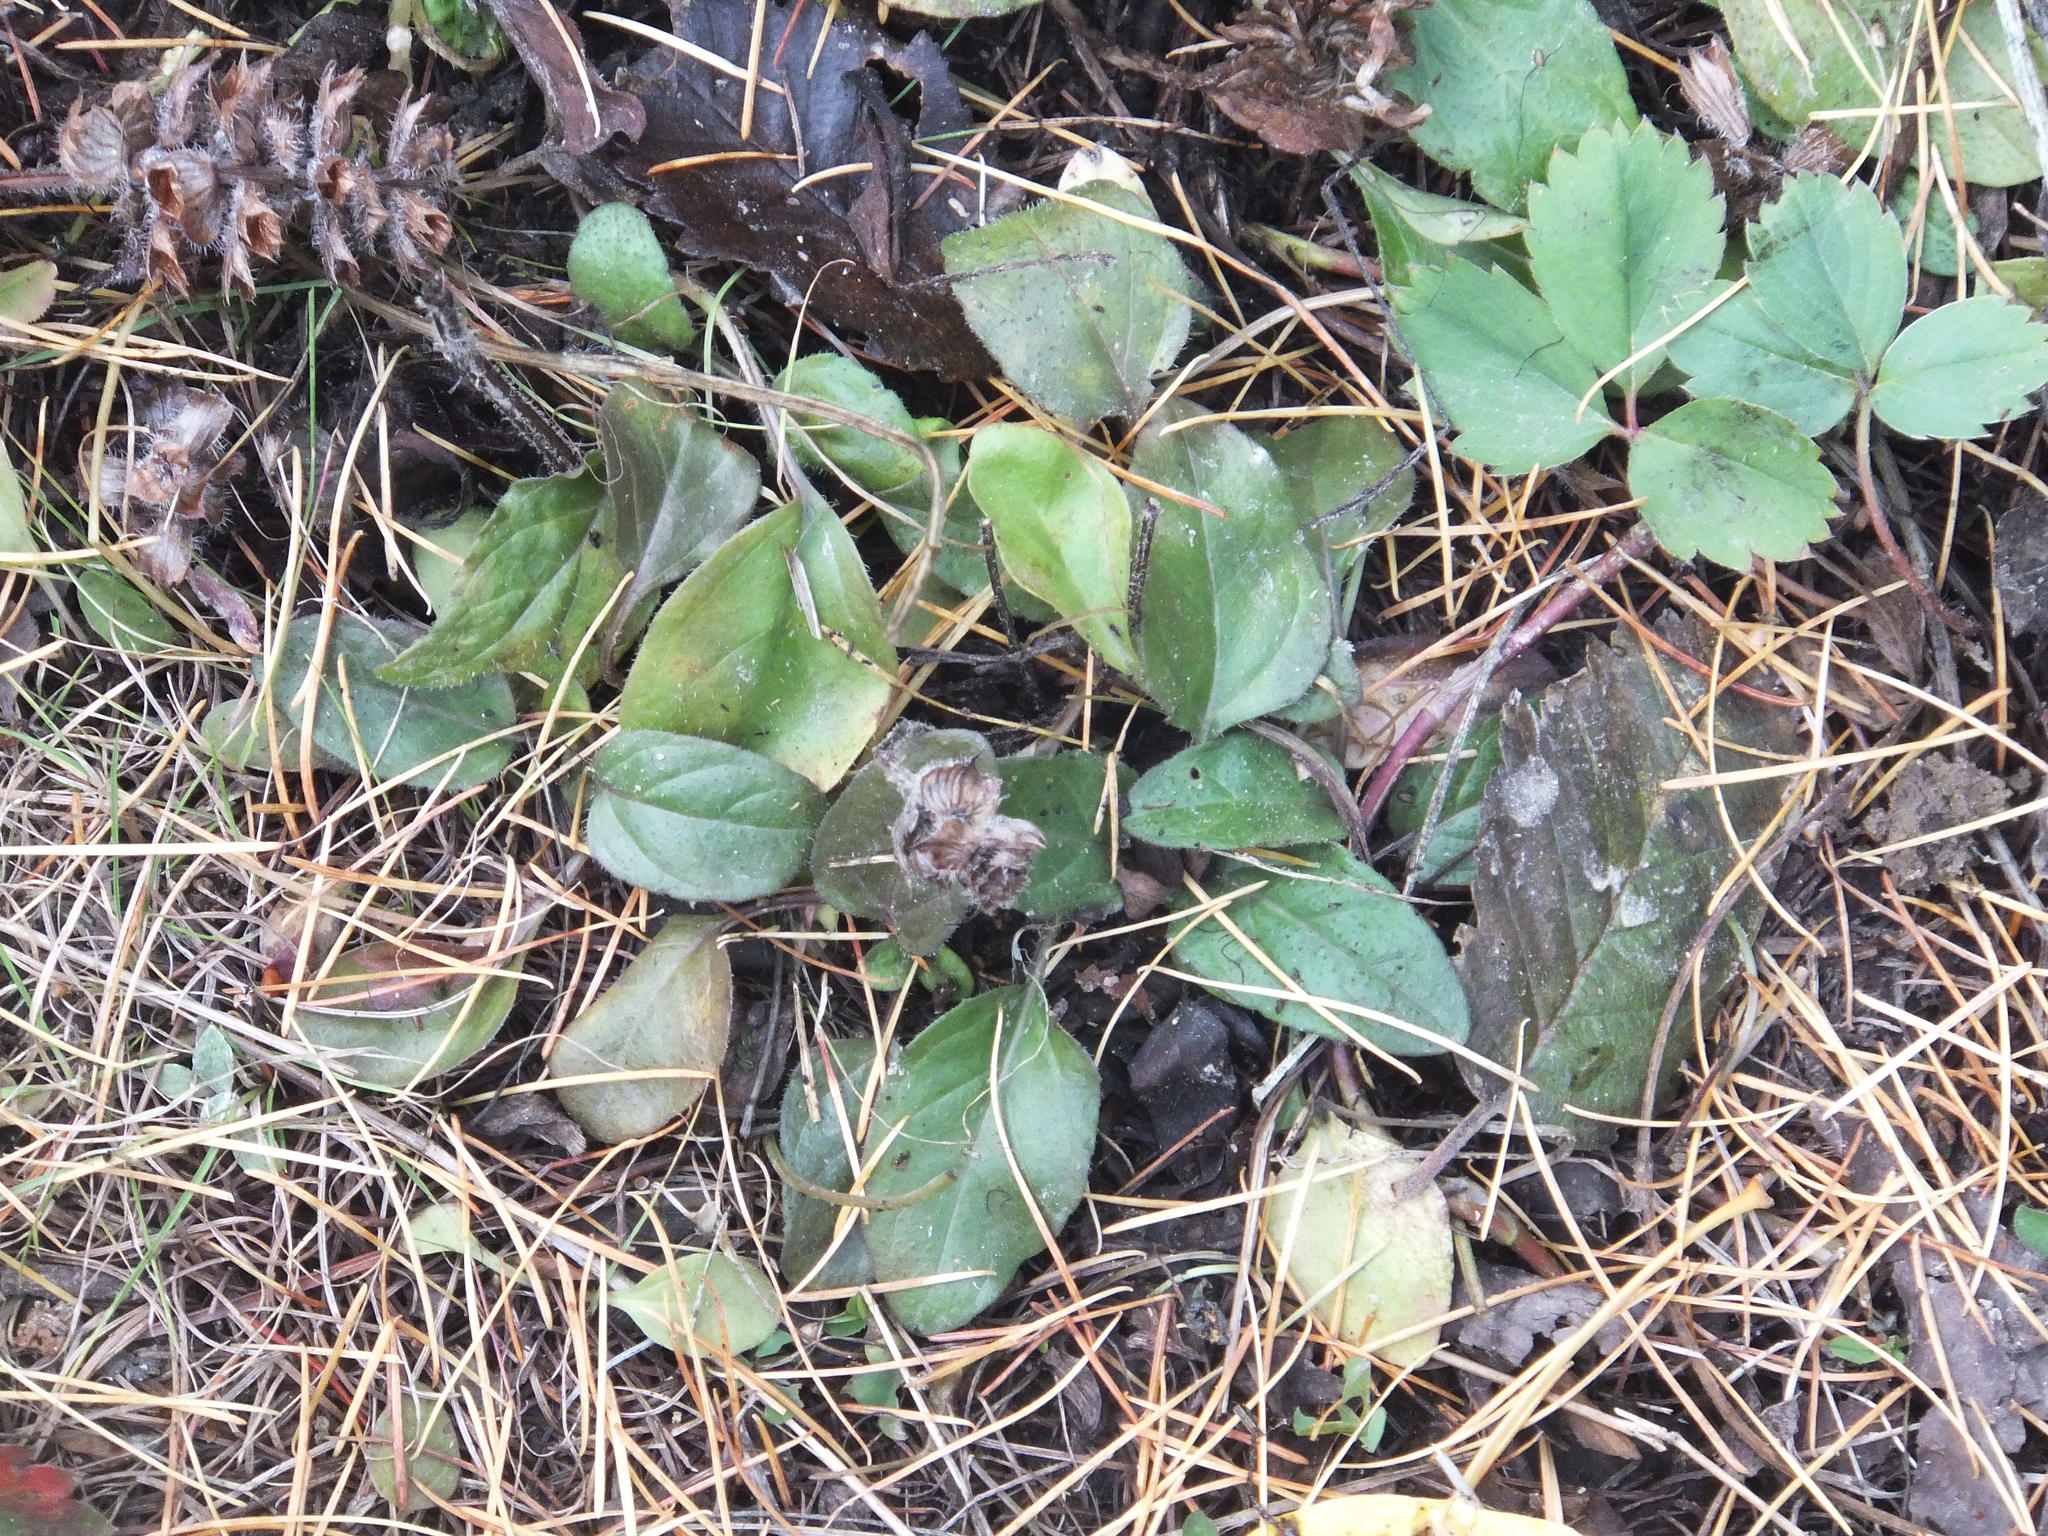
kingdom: Plantae
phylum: Tracheophyta
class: Magnoliopsida
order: Lamiales
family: Lamiaceae
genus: Prunella
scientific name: Prunella vulgaris
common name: Heal-all
